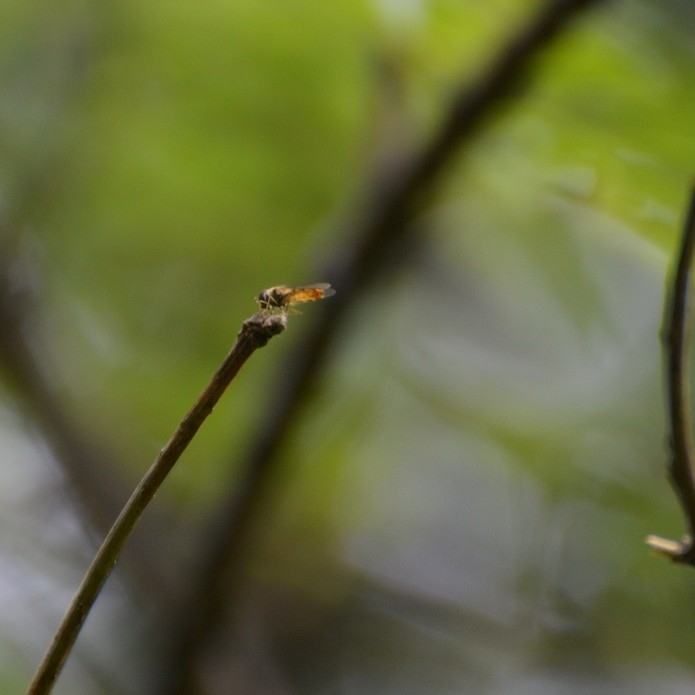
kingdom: Animalia
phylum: Arthropoda
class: Insecta
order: Diptera
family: Syrphidae
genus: Episyrphus
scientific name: Episyrphus balteatus
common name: Marmalade hoverfly
